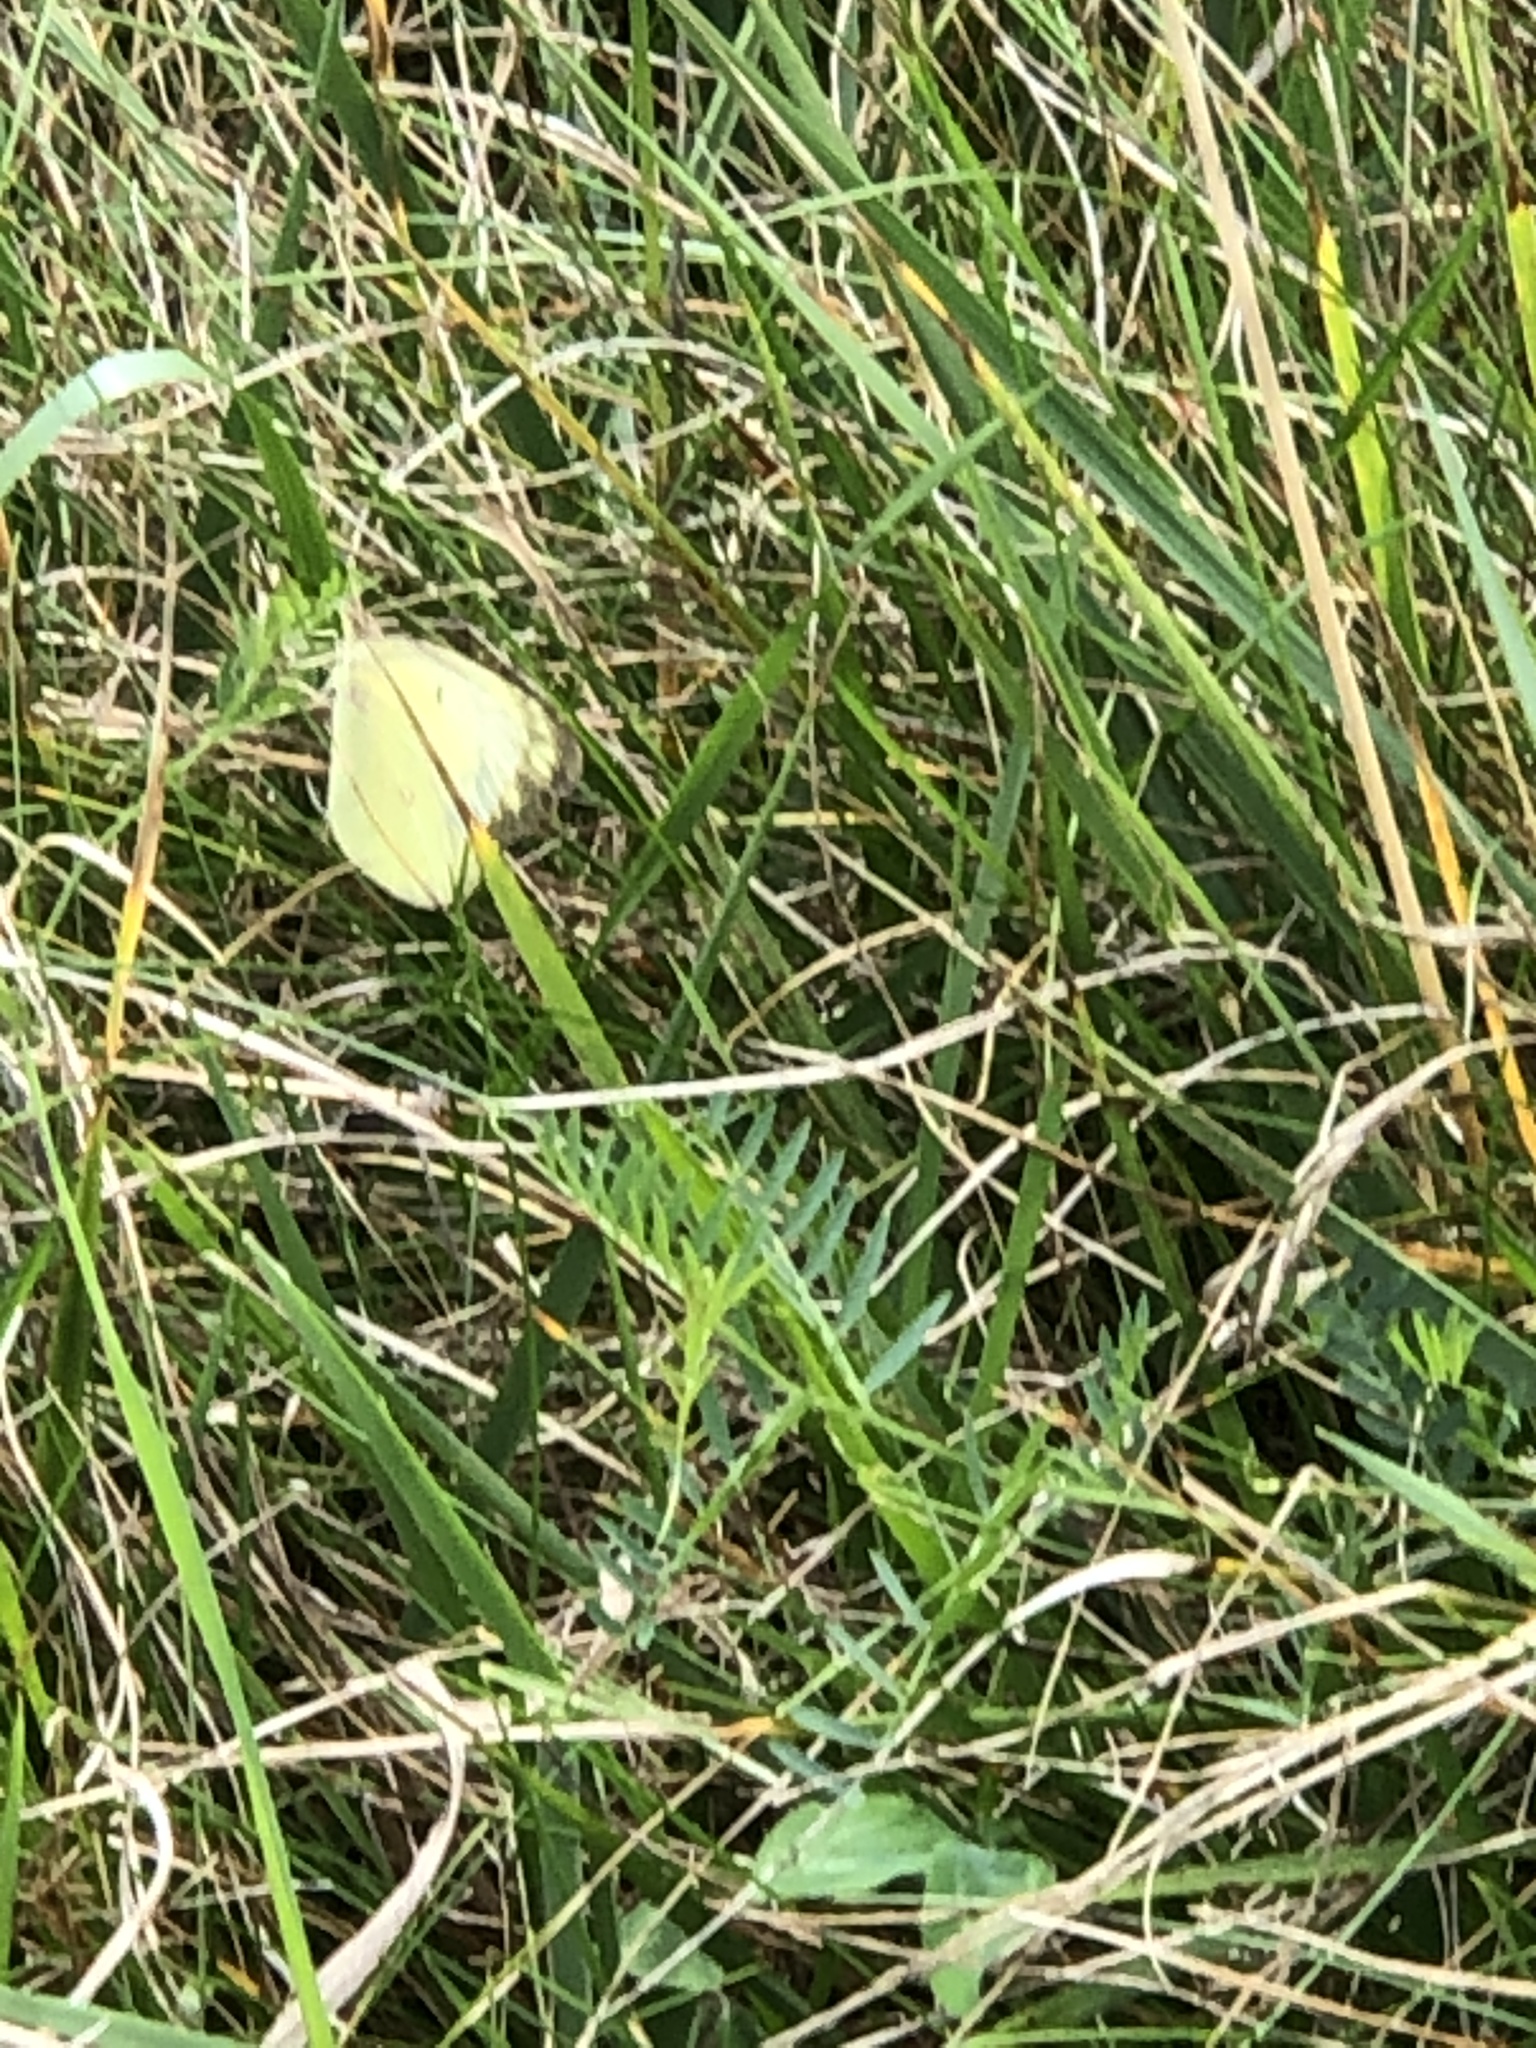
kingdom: Animalia
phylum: Arthropoda
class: Insecta
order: Lepidoptera
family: Pieridae
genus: Colias
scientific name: Colias philodice
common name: Clouded sulphur
